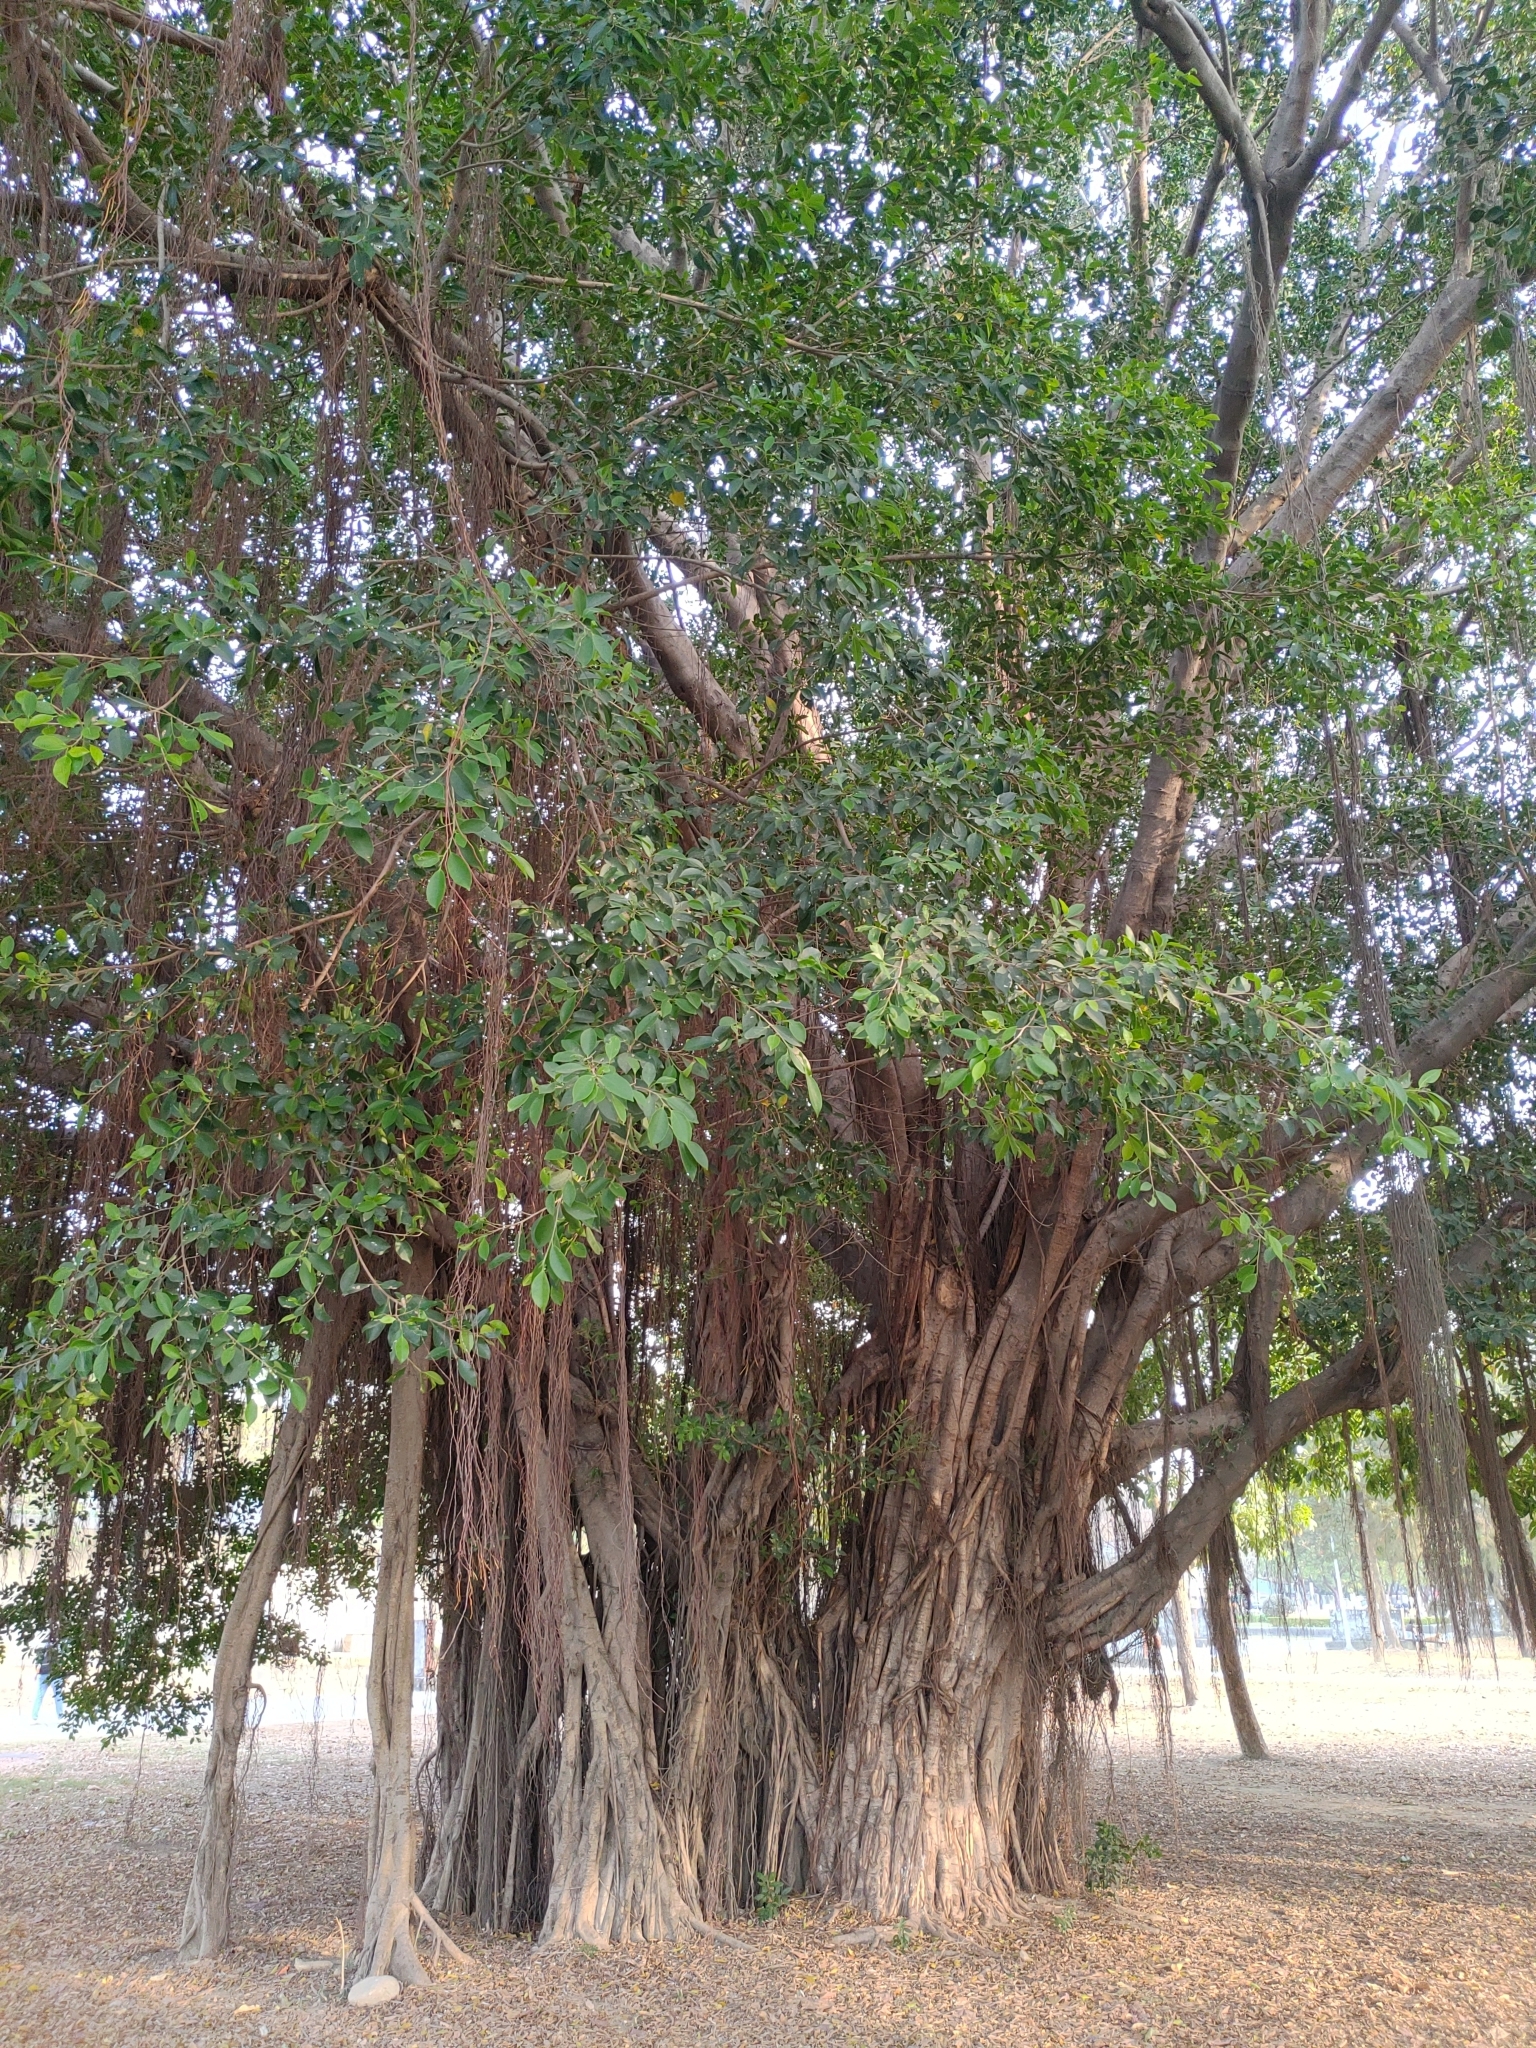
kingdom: Plantae
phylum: Tracheophyta
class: Magnoliopsida
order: Rosales
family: Moraceae
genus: Ficus
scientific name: Ficus microcarpa
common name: Chinese banyan
